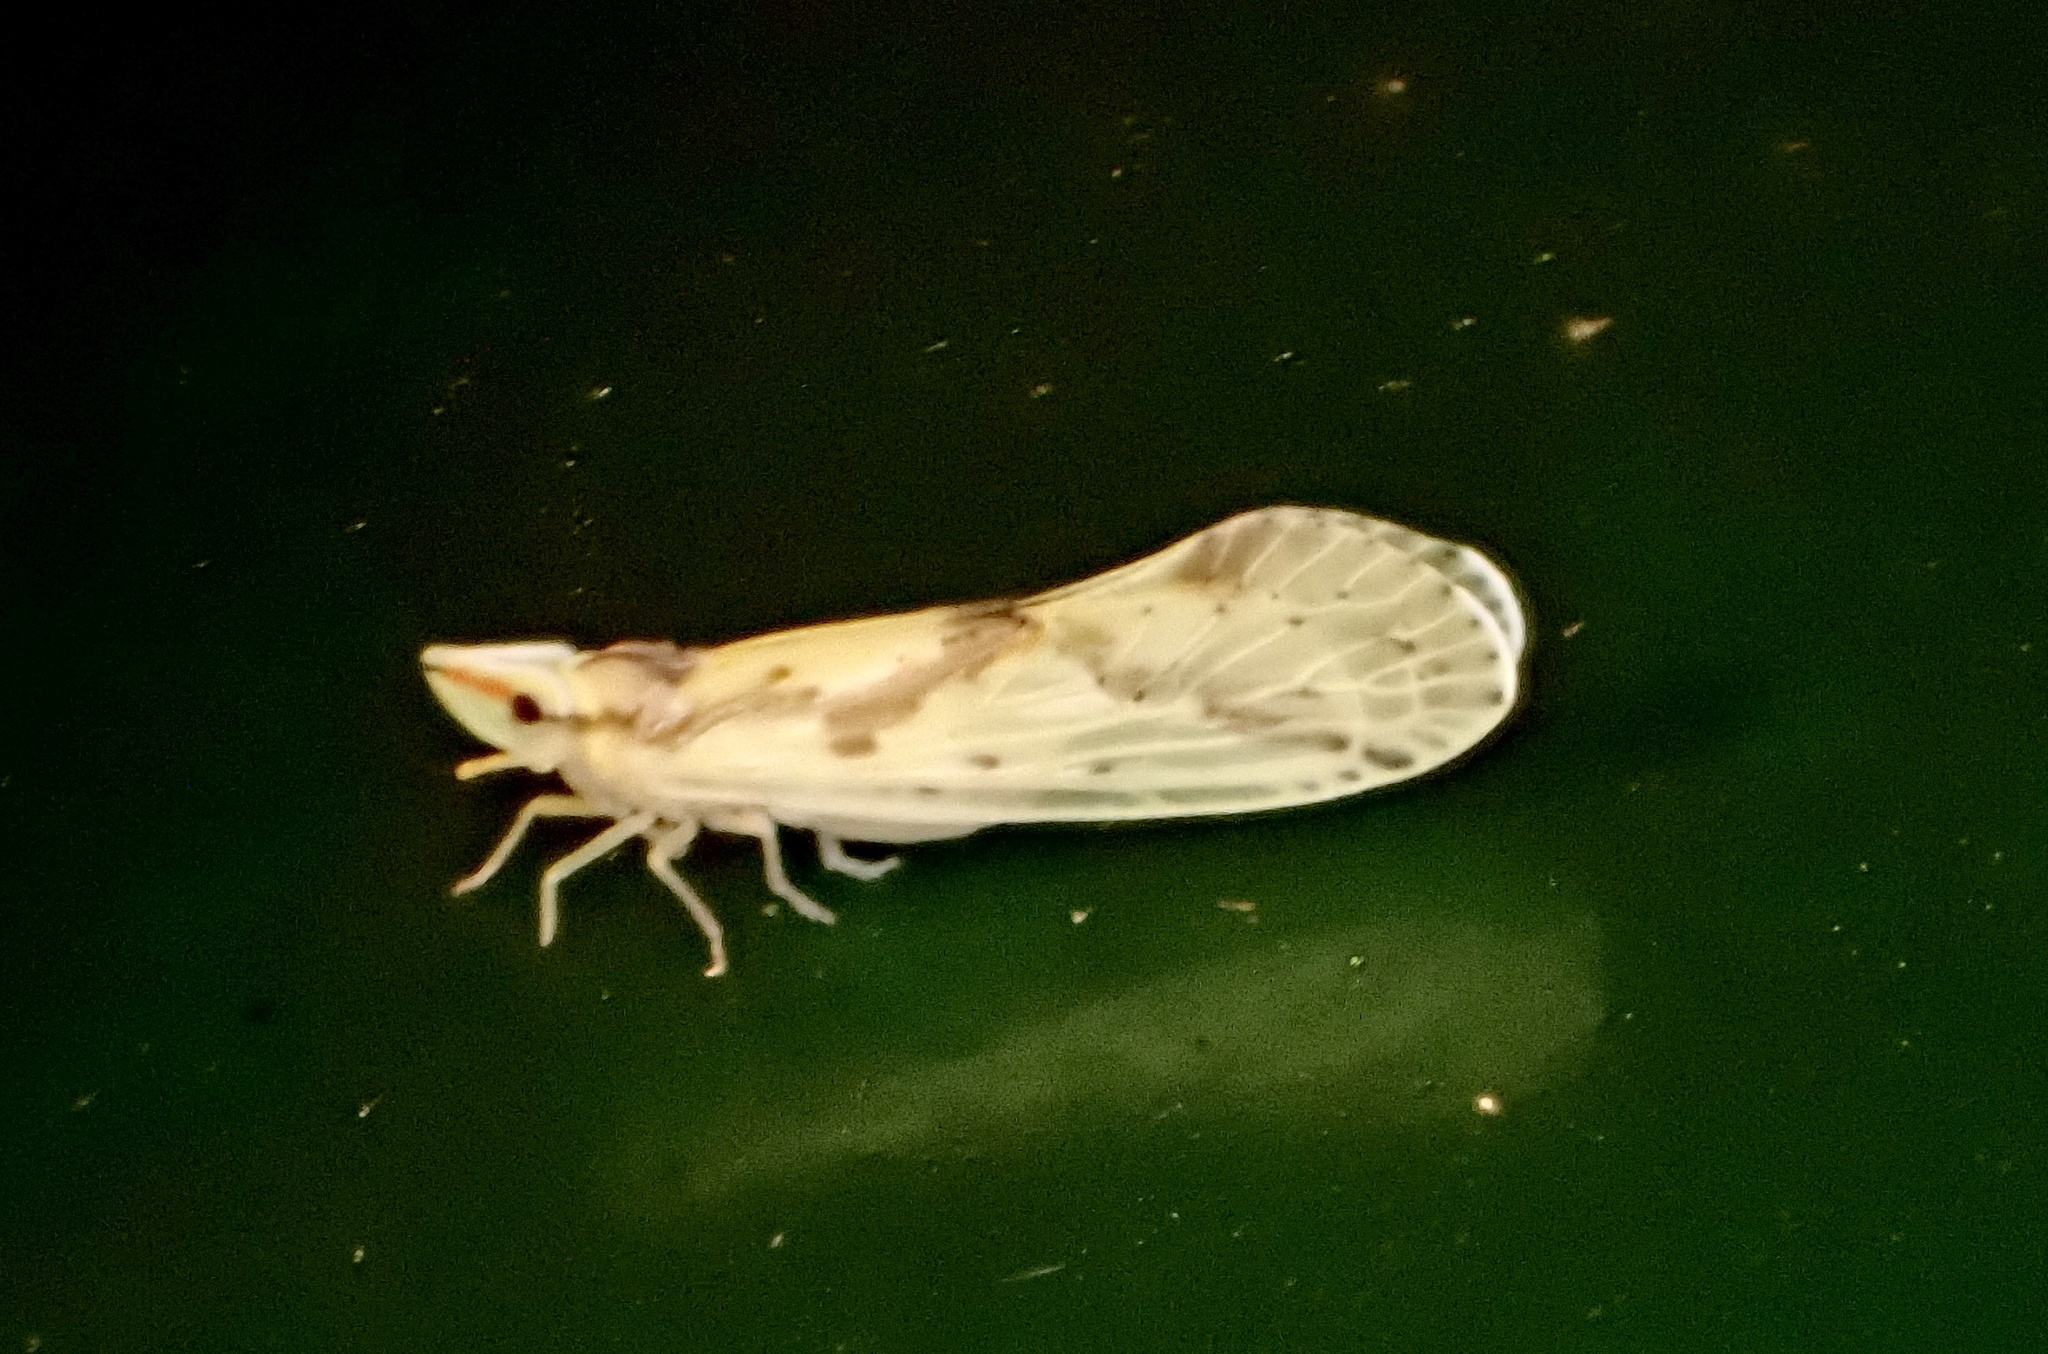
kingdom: Animalia
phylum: Arthropoda
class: Insecta
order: Hemiptera
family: Derbidae
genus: Otiocerus
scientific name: Otiocerus wolfii
